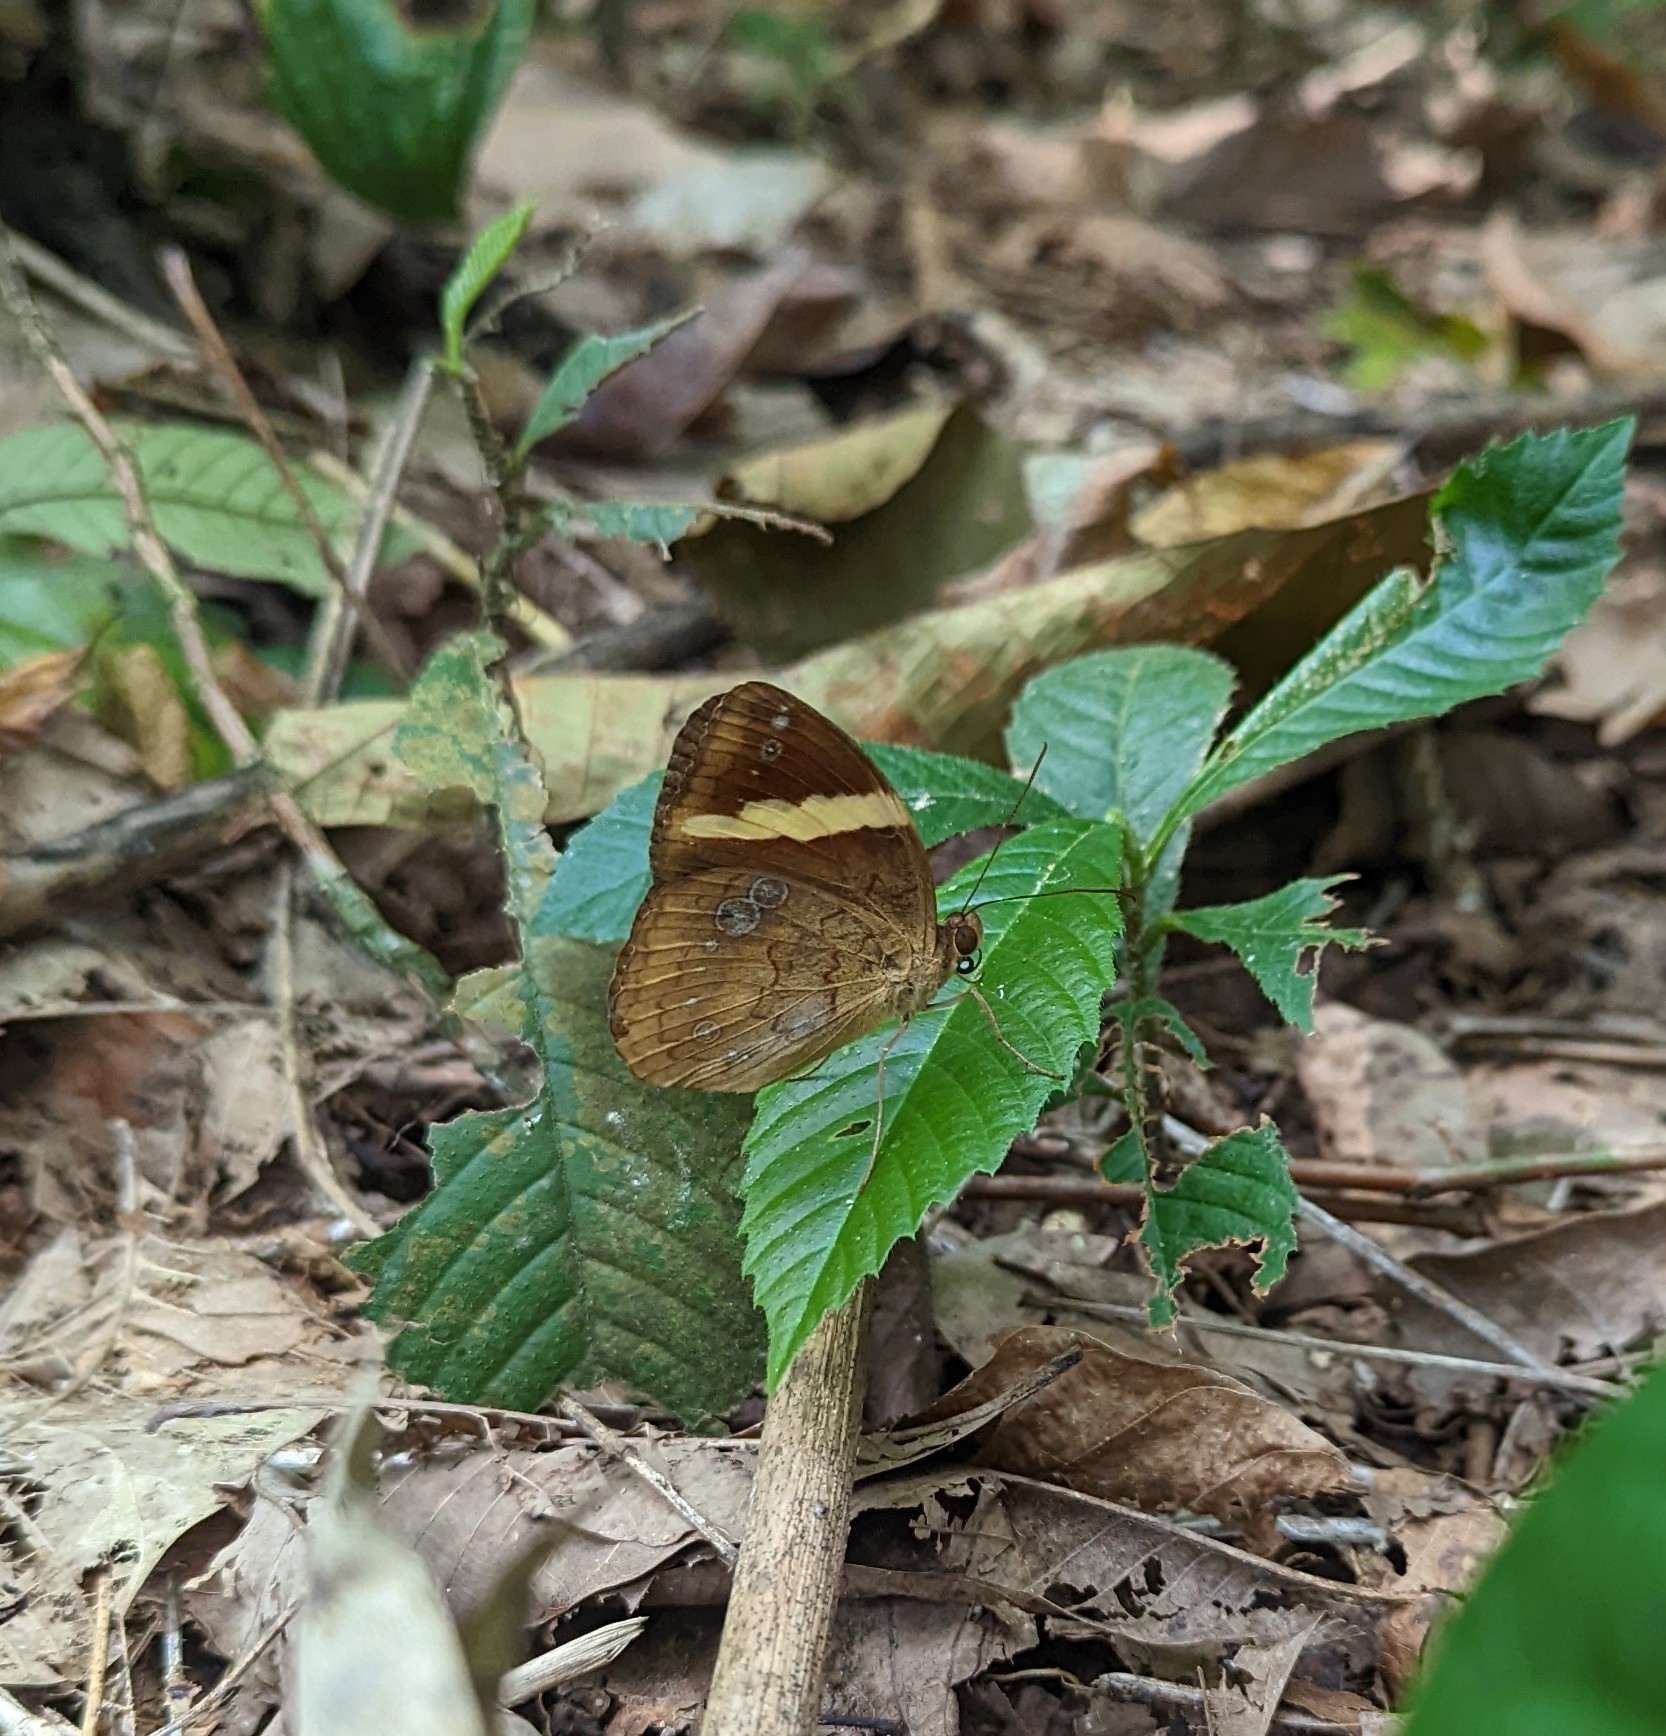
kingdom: Animalia
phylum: Arthropoda
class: Insecta
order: Lepidoptera
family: Nymphalidae
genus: Xanthotaenia
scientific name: Xanthotaenia busiris
